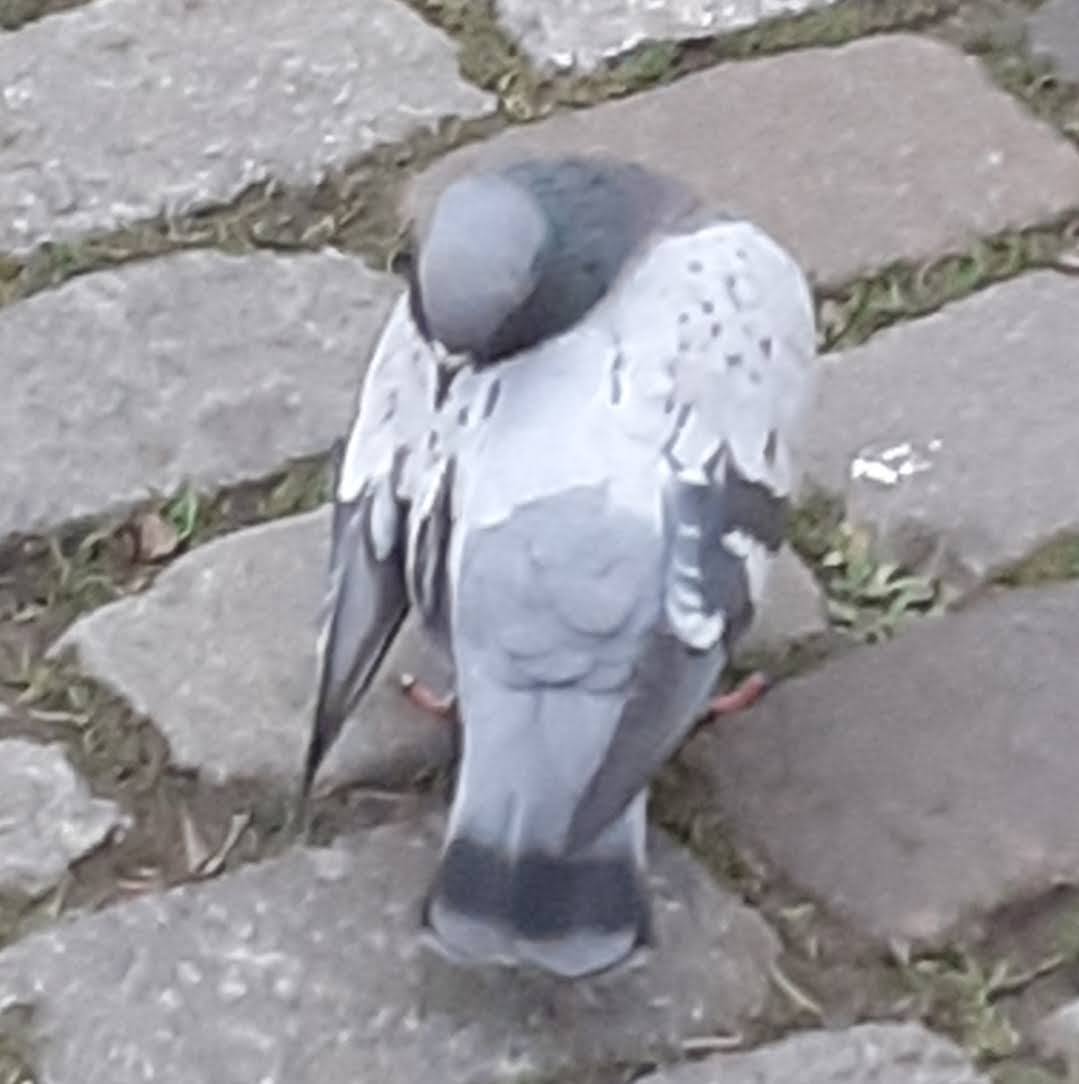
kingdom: Animalia
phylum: Chordata
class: Aves
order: Columbiformes
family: Columbidae
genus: Columba
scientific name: Columba livia
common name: Rock pigeon
